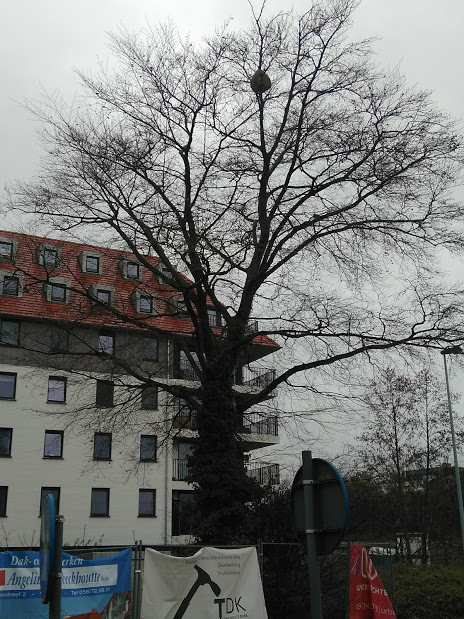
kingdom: Animalia
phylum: Arthropoda
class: Insecta
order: Hymenoptera
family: Vespidae
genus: Vespa
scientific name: Vespa velutina
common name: Asian hornet
